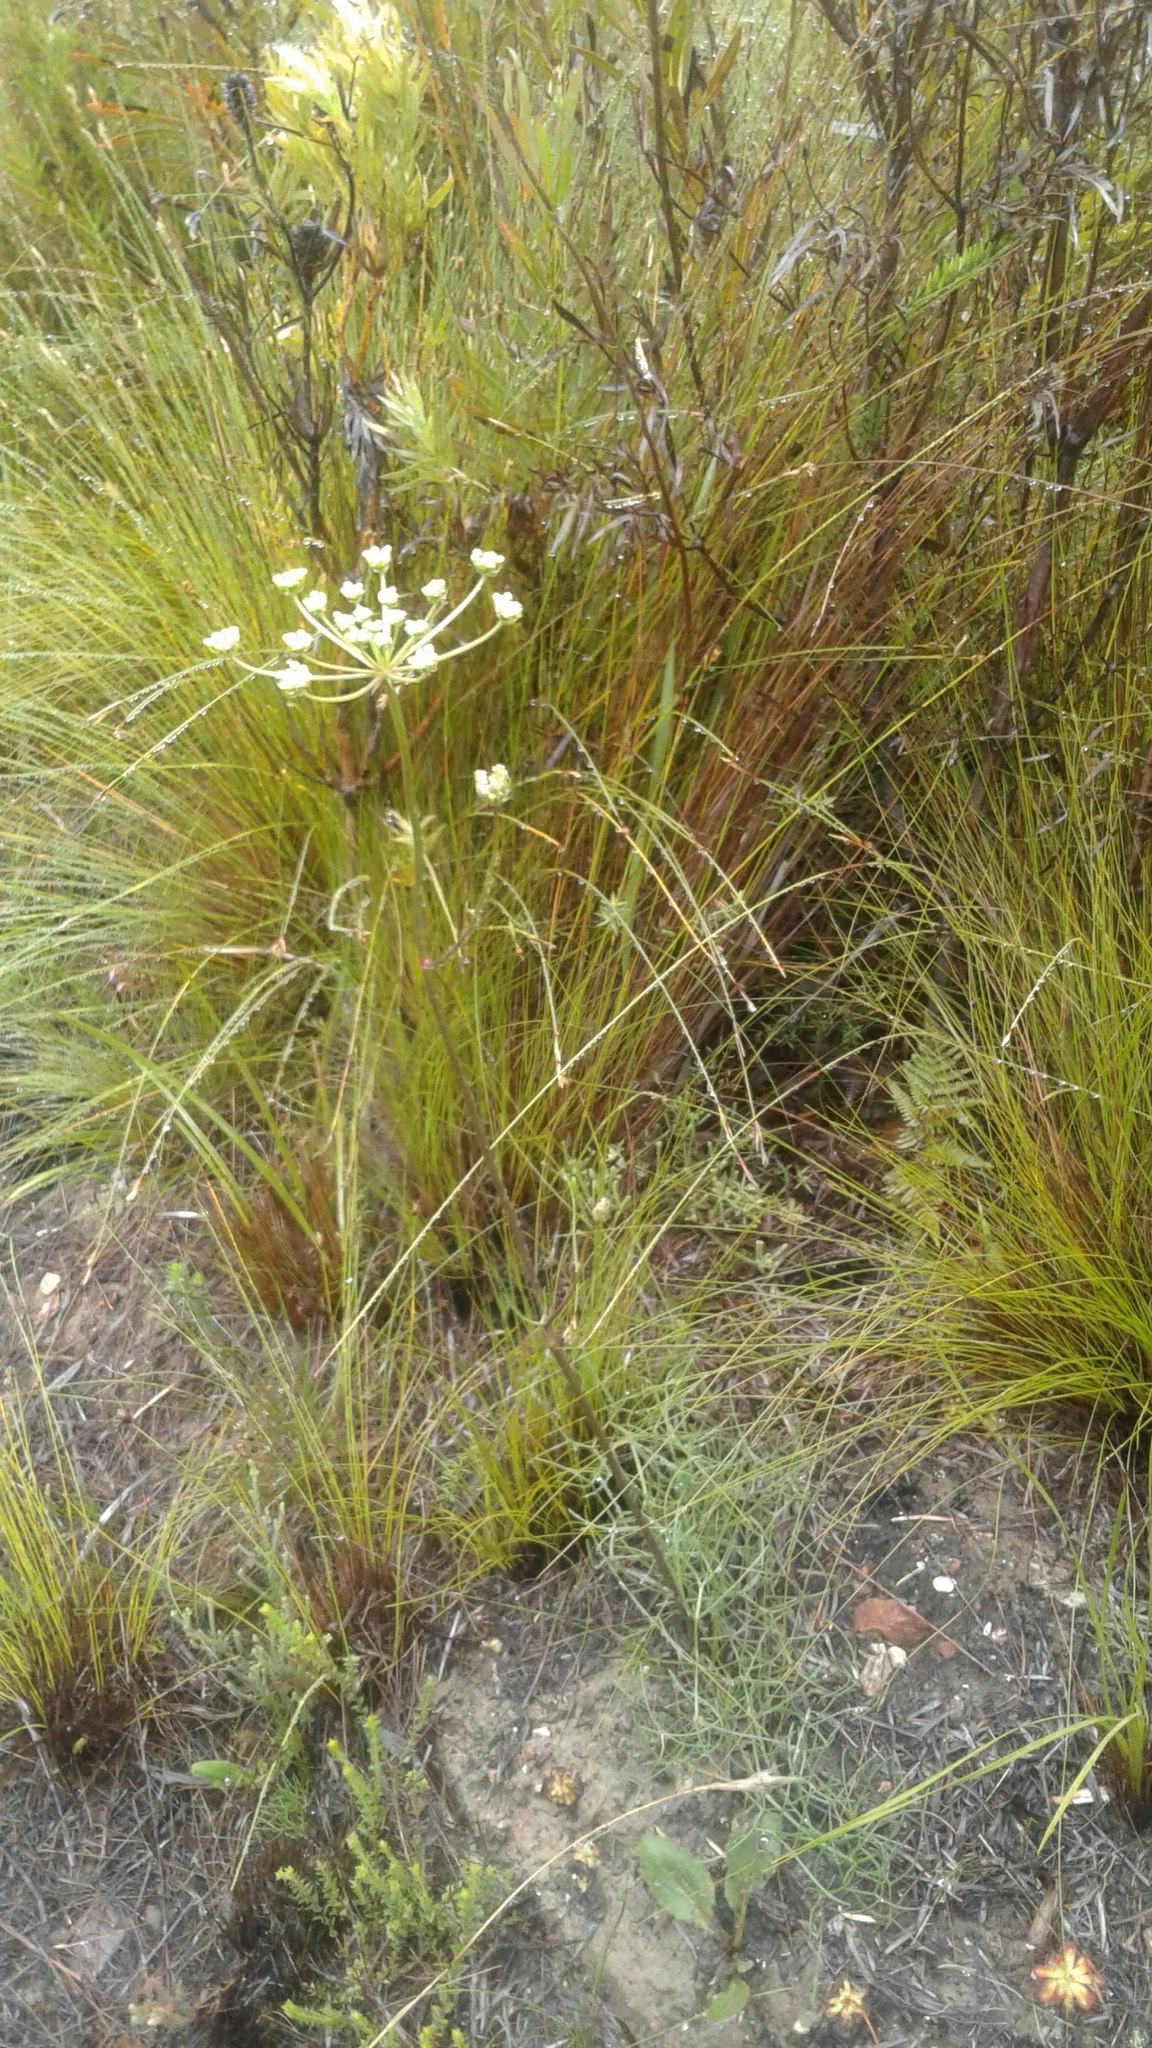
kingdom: Plantae
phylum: Tracheophyta
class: Magnoliopsida
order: Apiales
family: Apiaceae
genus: Nanobubon
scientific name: Nanobubon capillaceum
